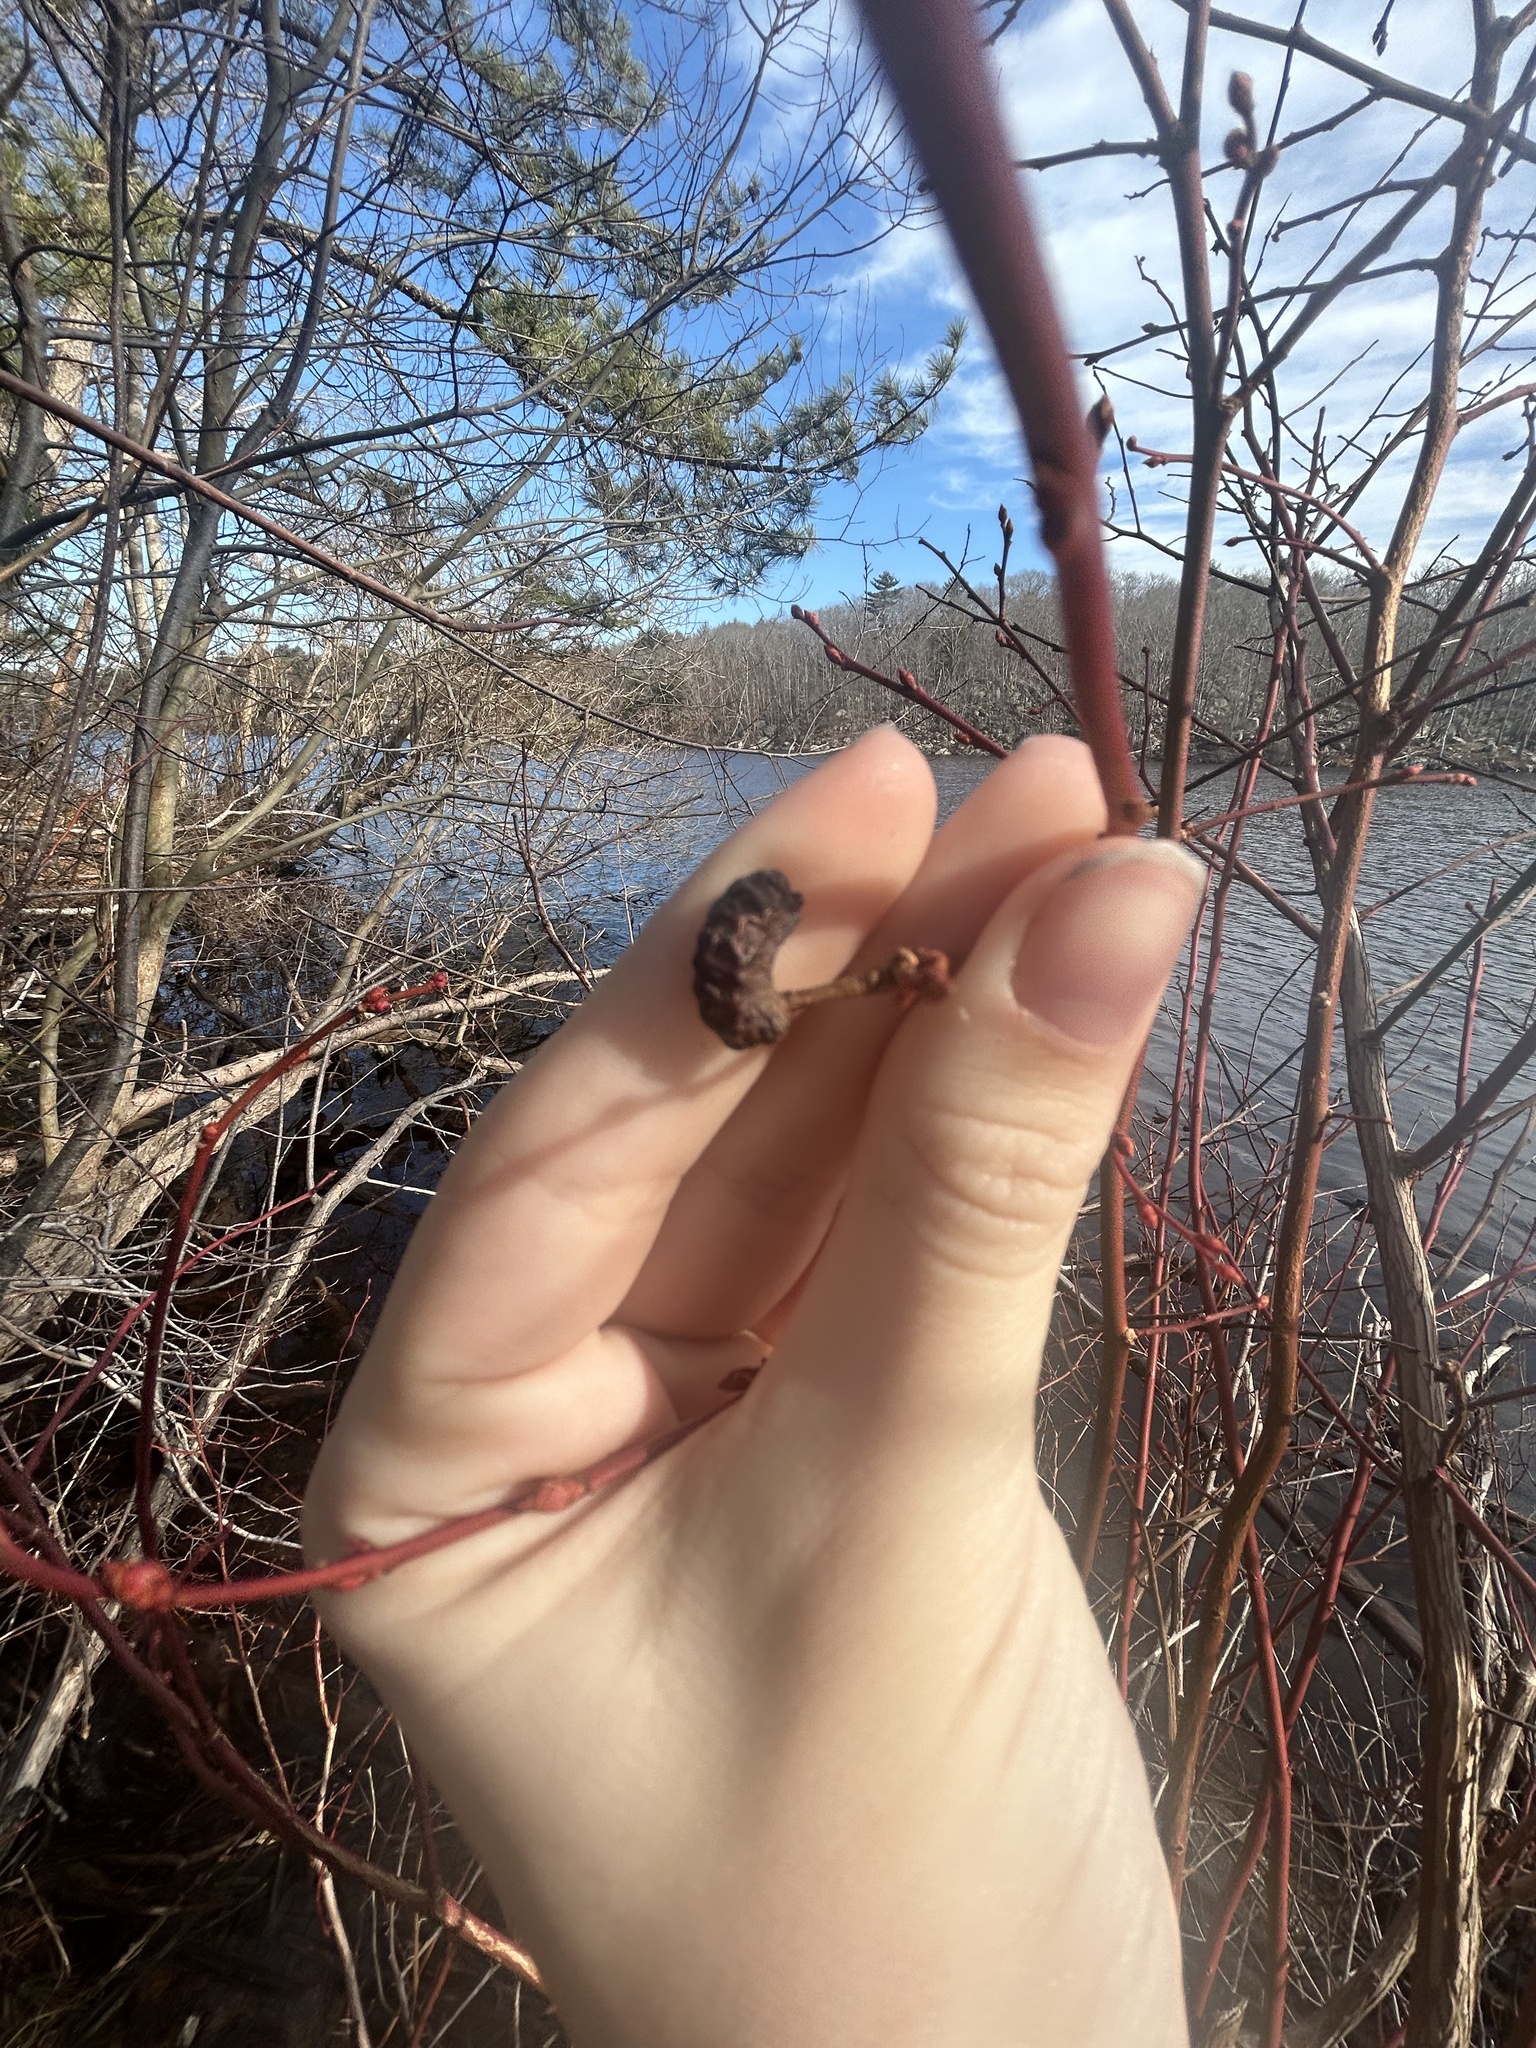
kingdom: Plantae
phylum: Tracheophyta
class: Magnoliopsida
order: Ericales
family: Ericaceae
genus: Vaccinium
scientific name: Vaccinium corymbosum
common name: Blueberry
